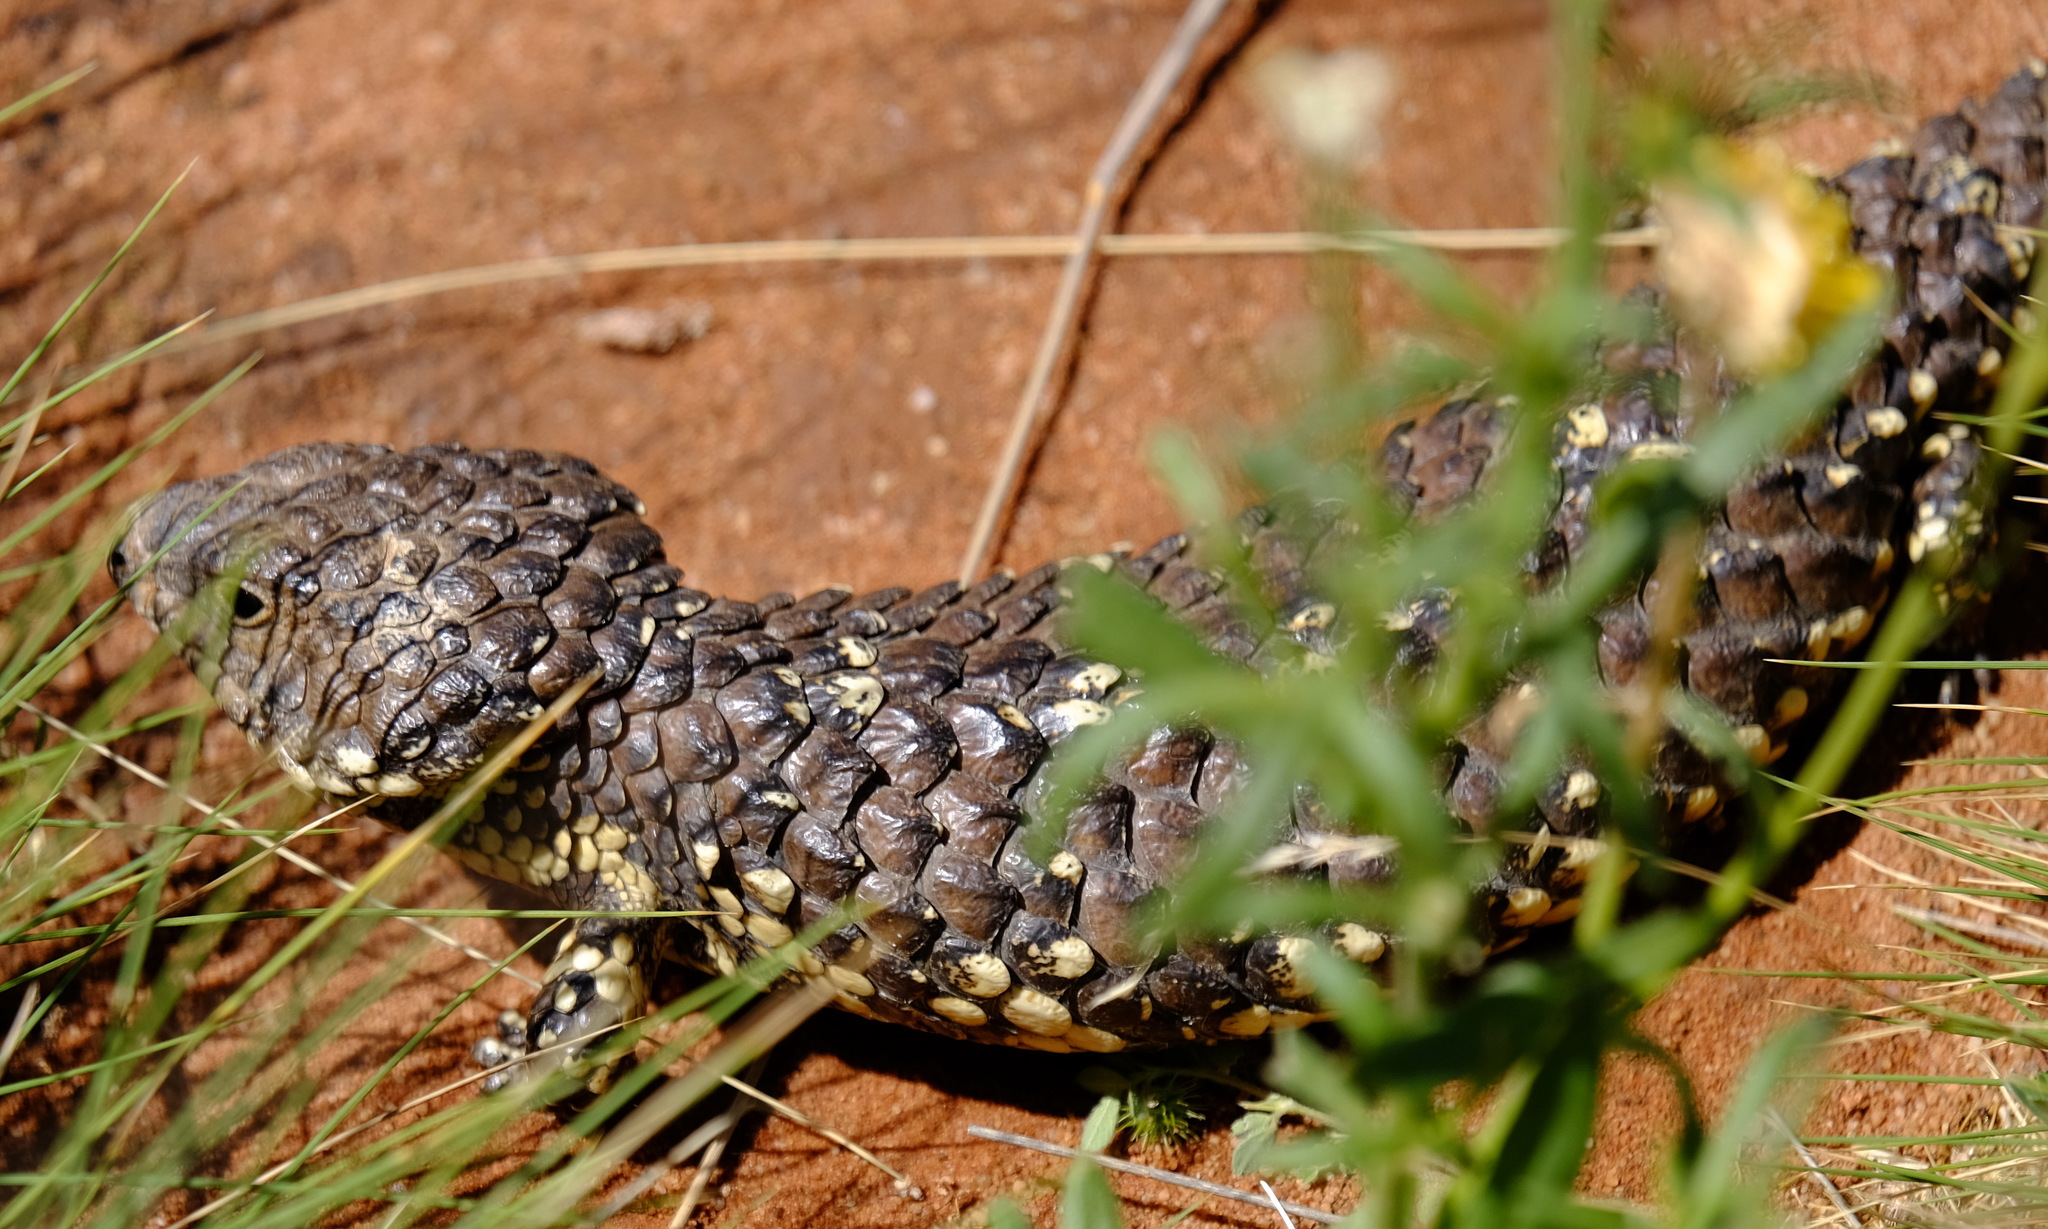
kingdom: Animalia
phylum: Chordata
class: Squamata
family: Scincidae
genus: Tiliqua
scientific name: Tiliqua rugosa
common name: Pinecone lizard
